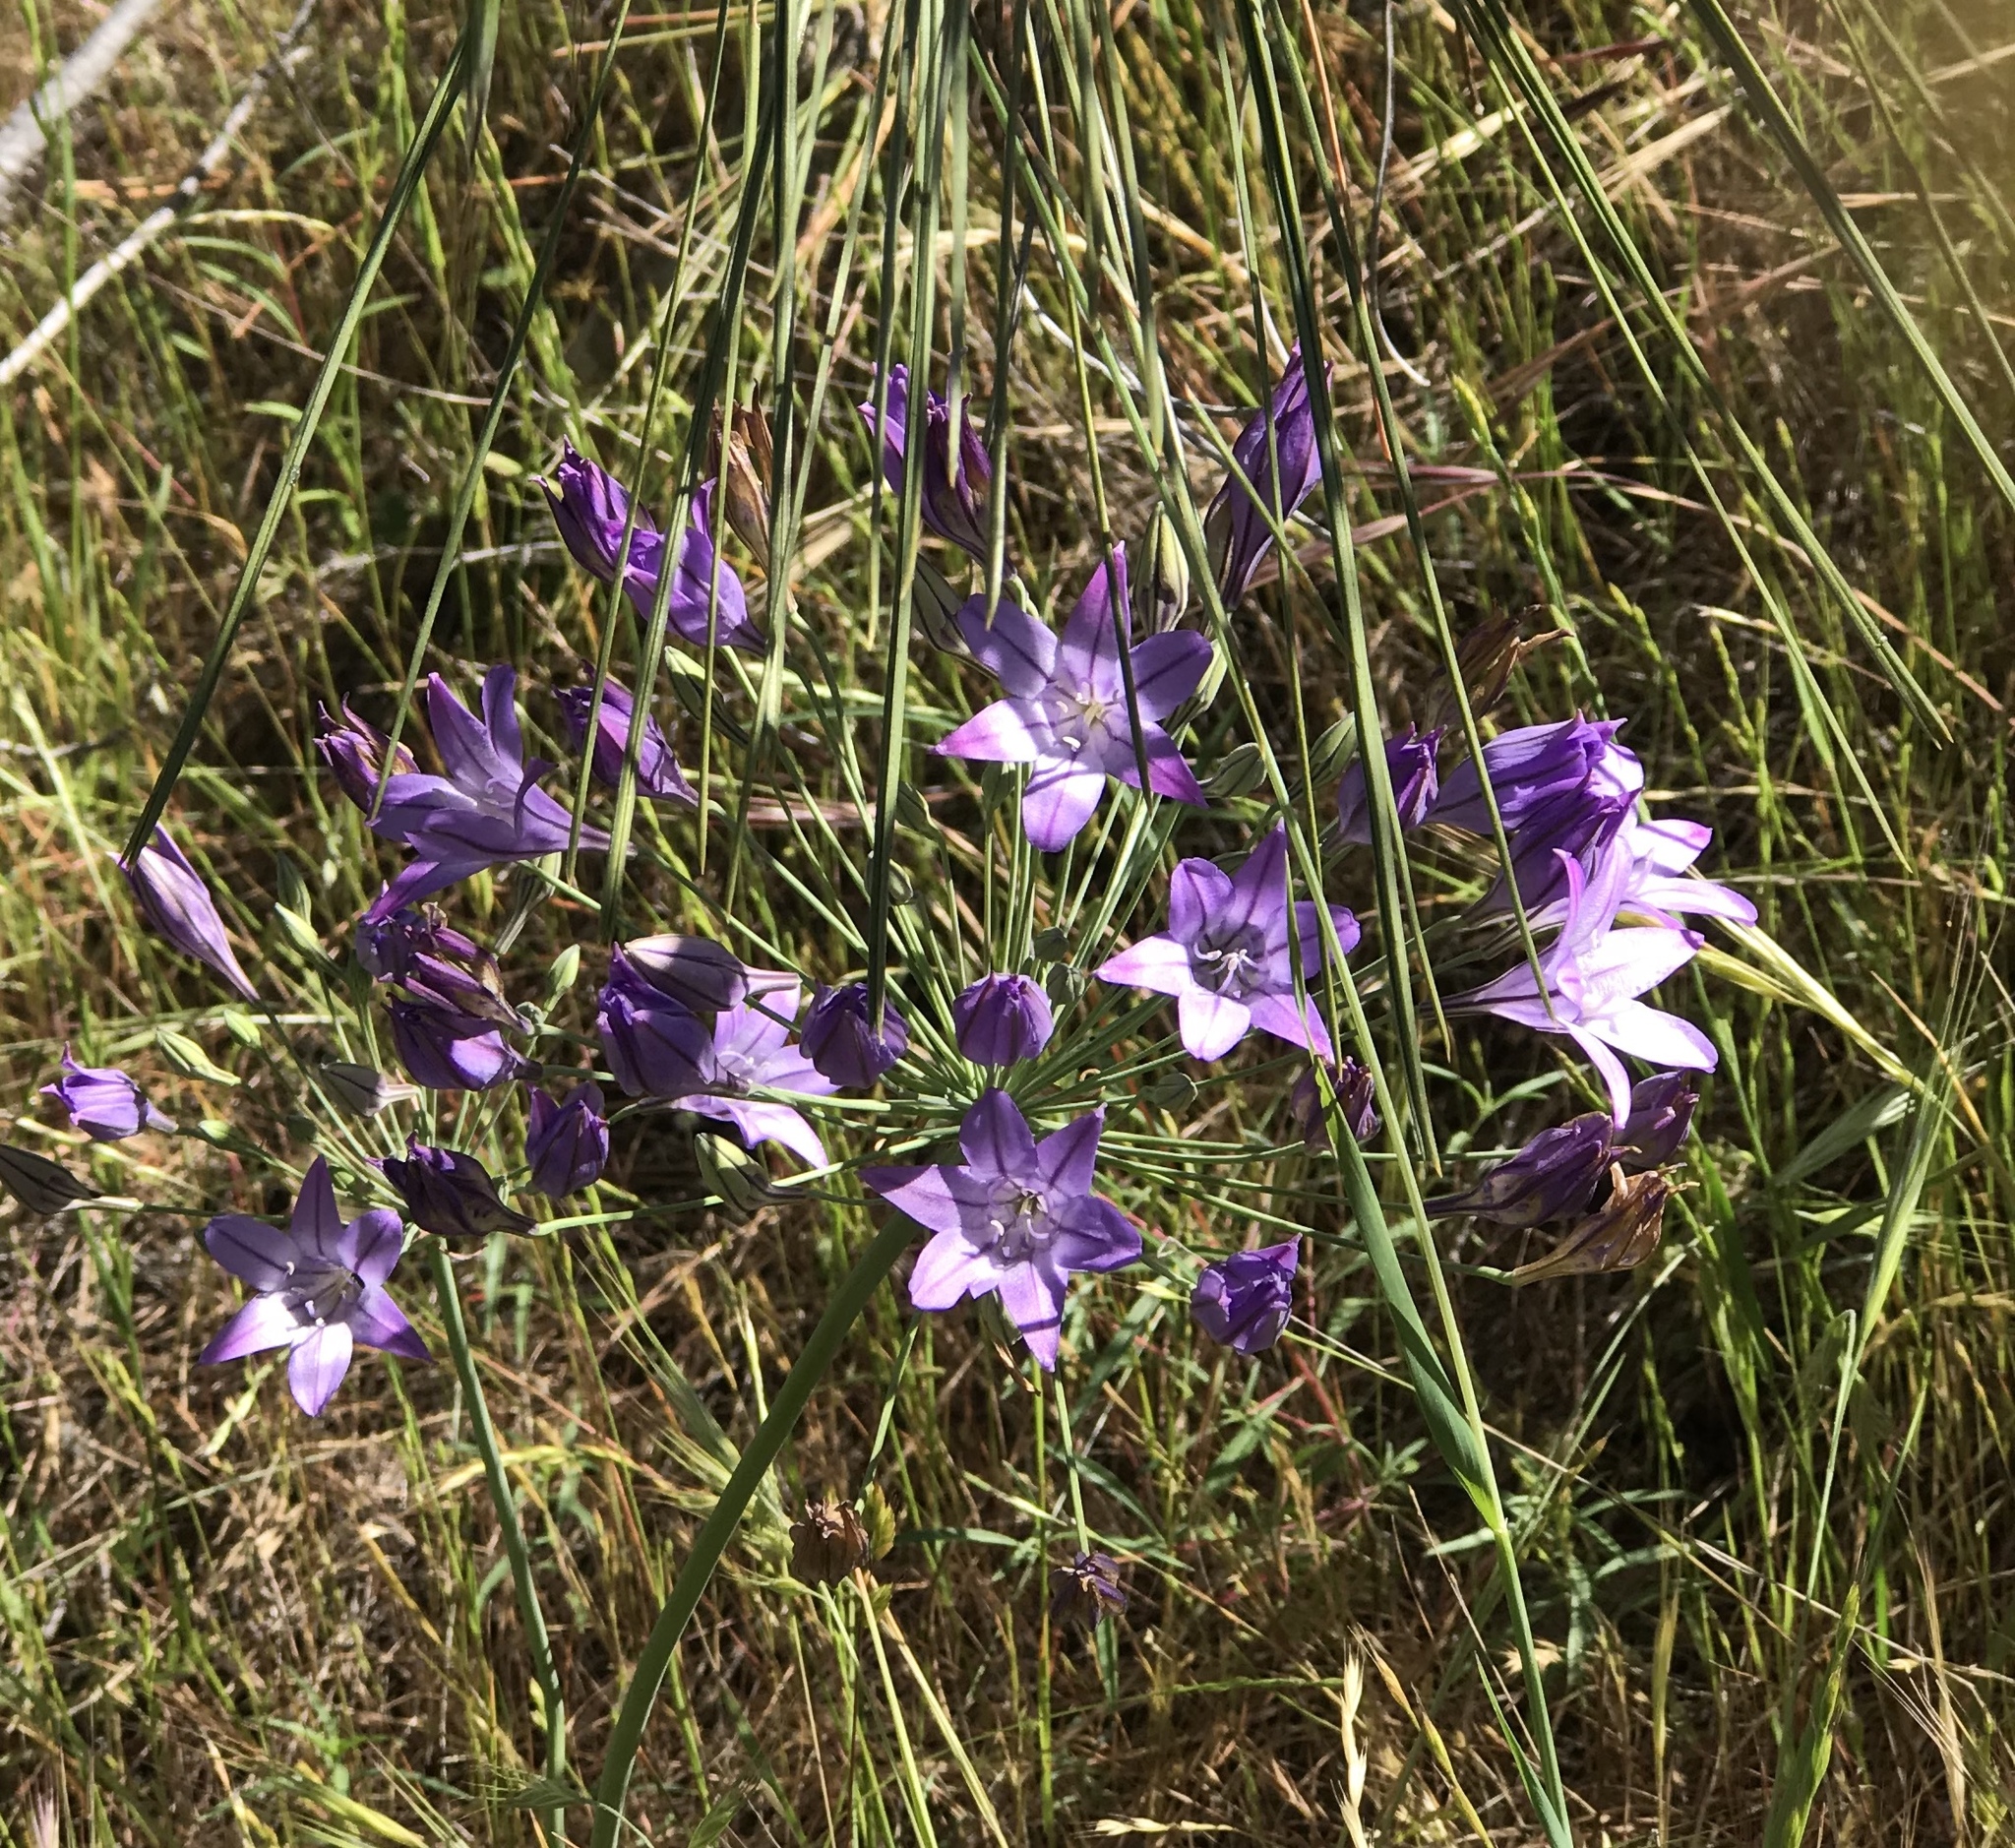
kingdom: Plantae
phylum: Tracheophyta
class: Liliopsida
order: Asparagales
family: Asparagaceae
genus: Triteleia
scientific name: Triteleia laxa
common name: Triplet-lily
